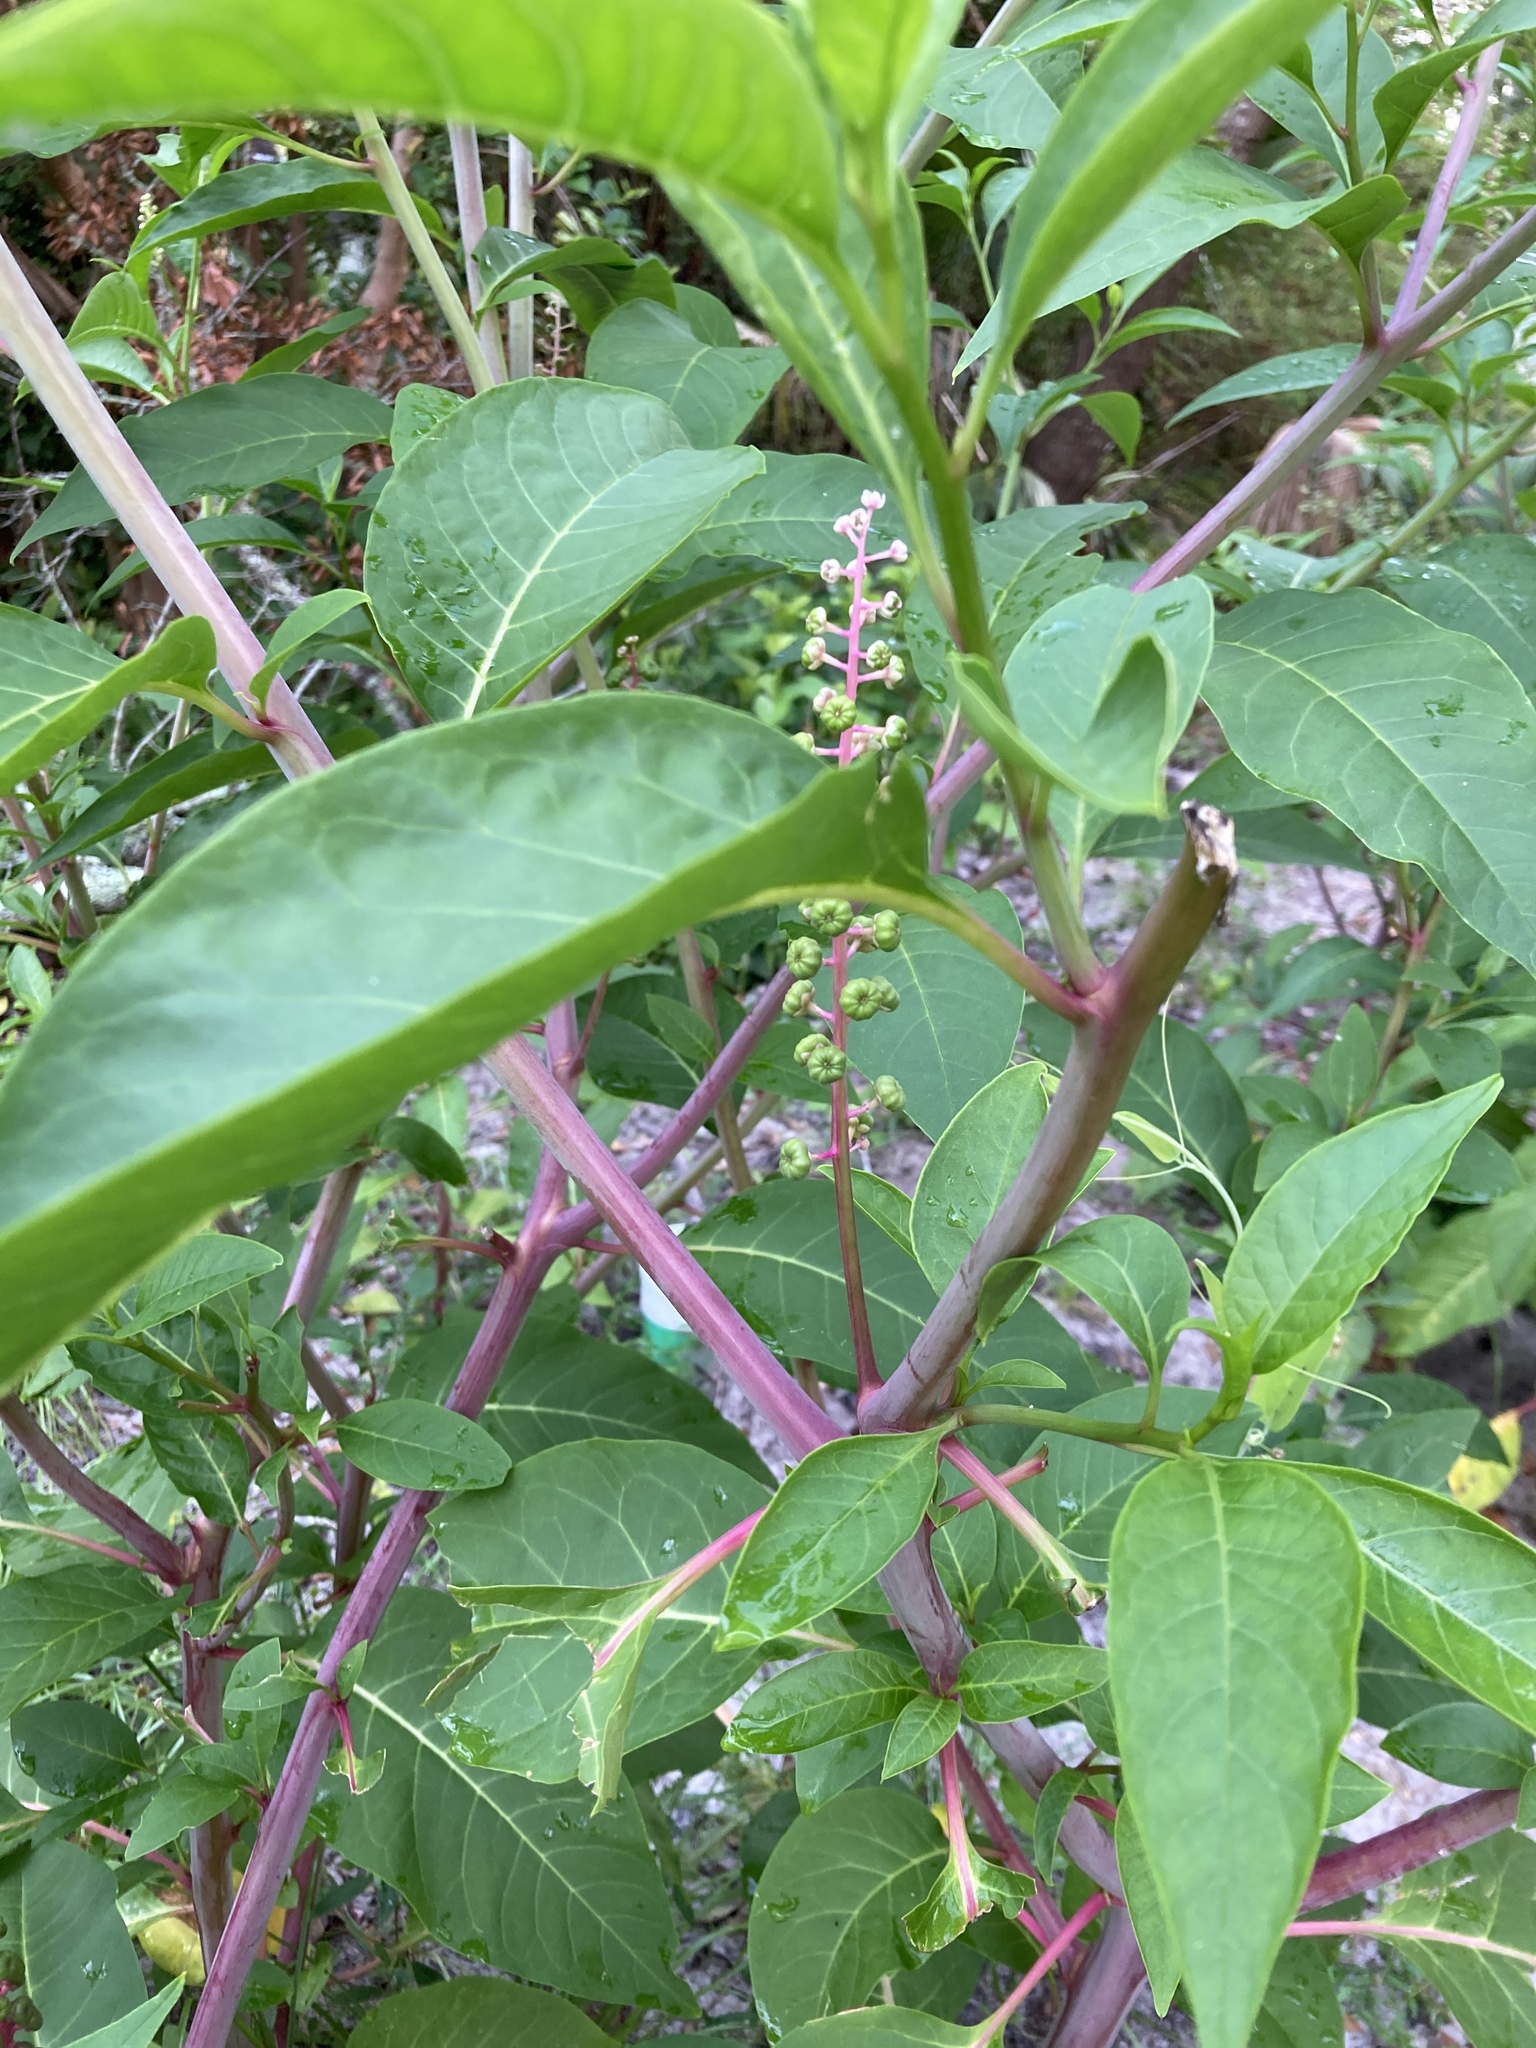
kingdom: Plantae
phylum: Tracheophyta
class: Magnoliopsida
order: Caryophyllales
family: Phytolaccaceae
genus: Phytolacca
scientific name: Phytolacca americana
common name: American pokeweed
